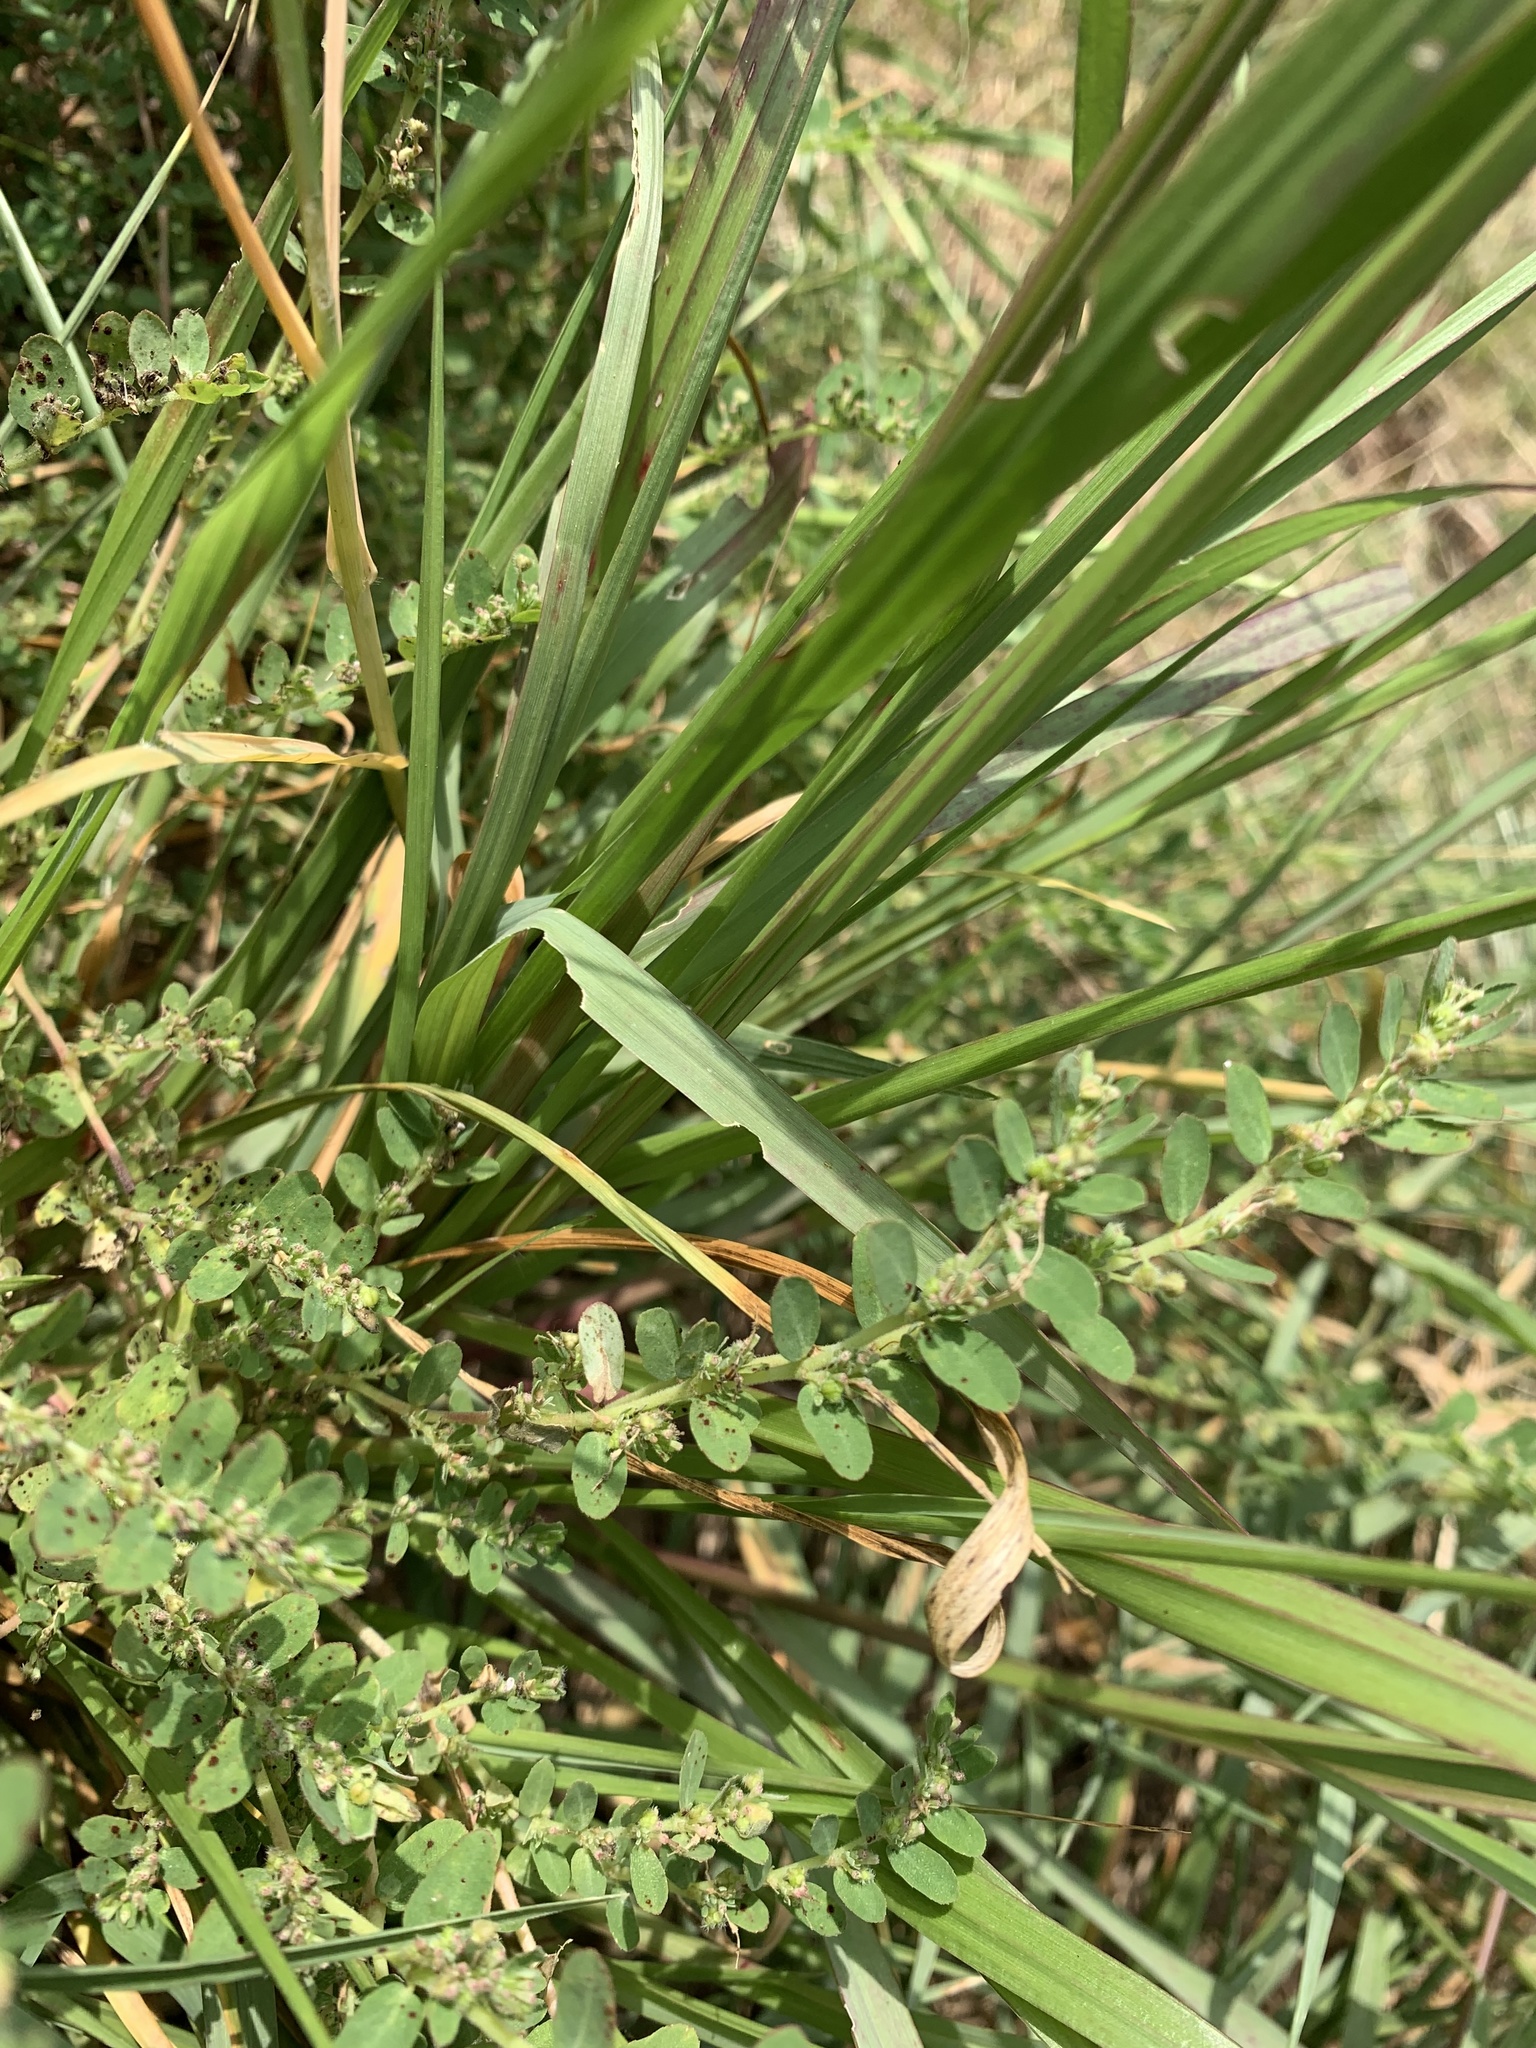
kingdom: Plantae
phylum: Tracheophyta
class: Magnoliopsida
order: Malpighiales
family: Euphorbiaceae
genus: Euphorbia
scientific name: Euphorbia prostrata
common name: Prostrate sandmat
